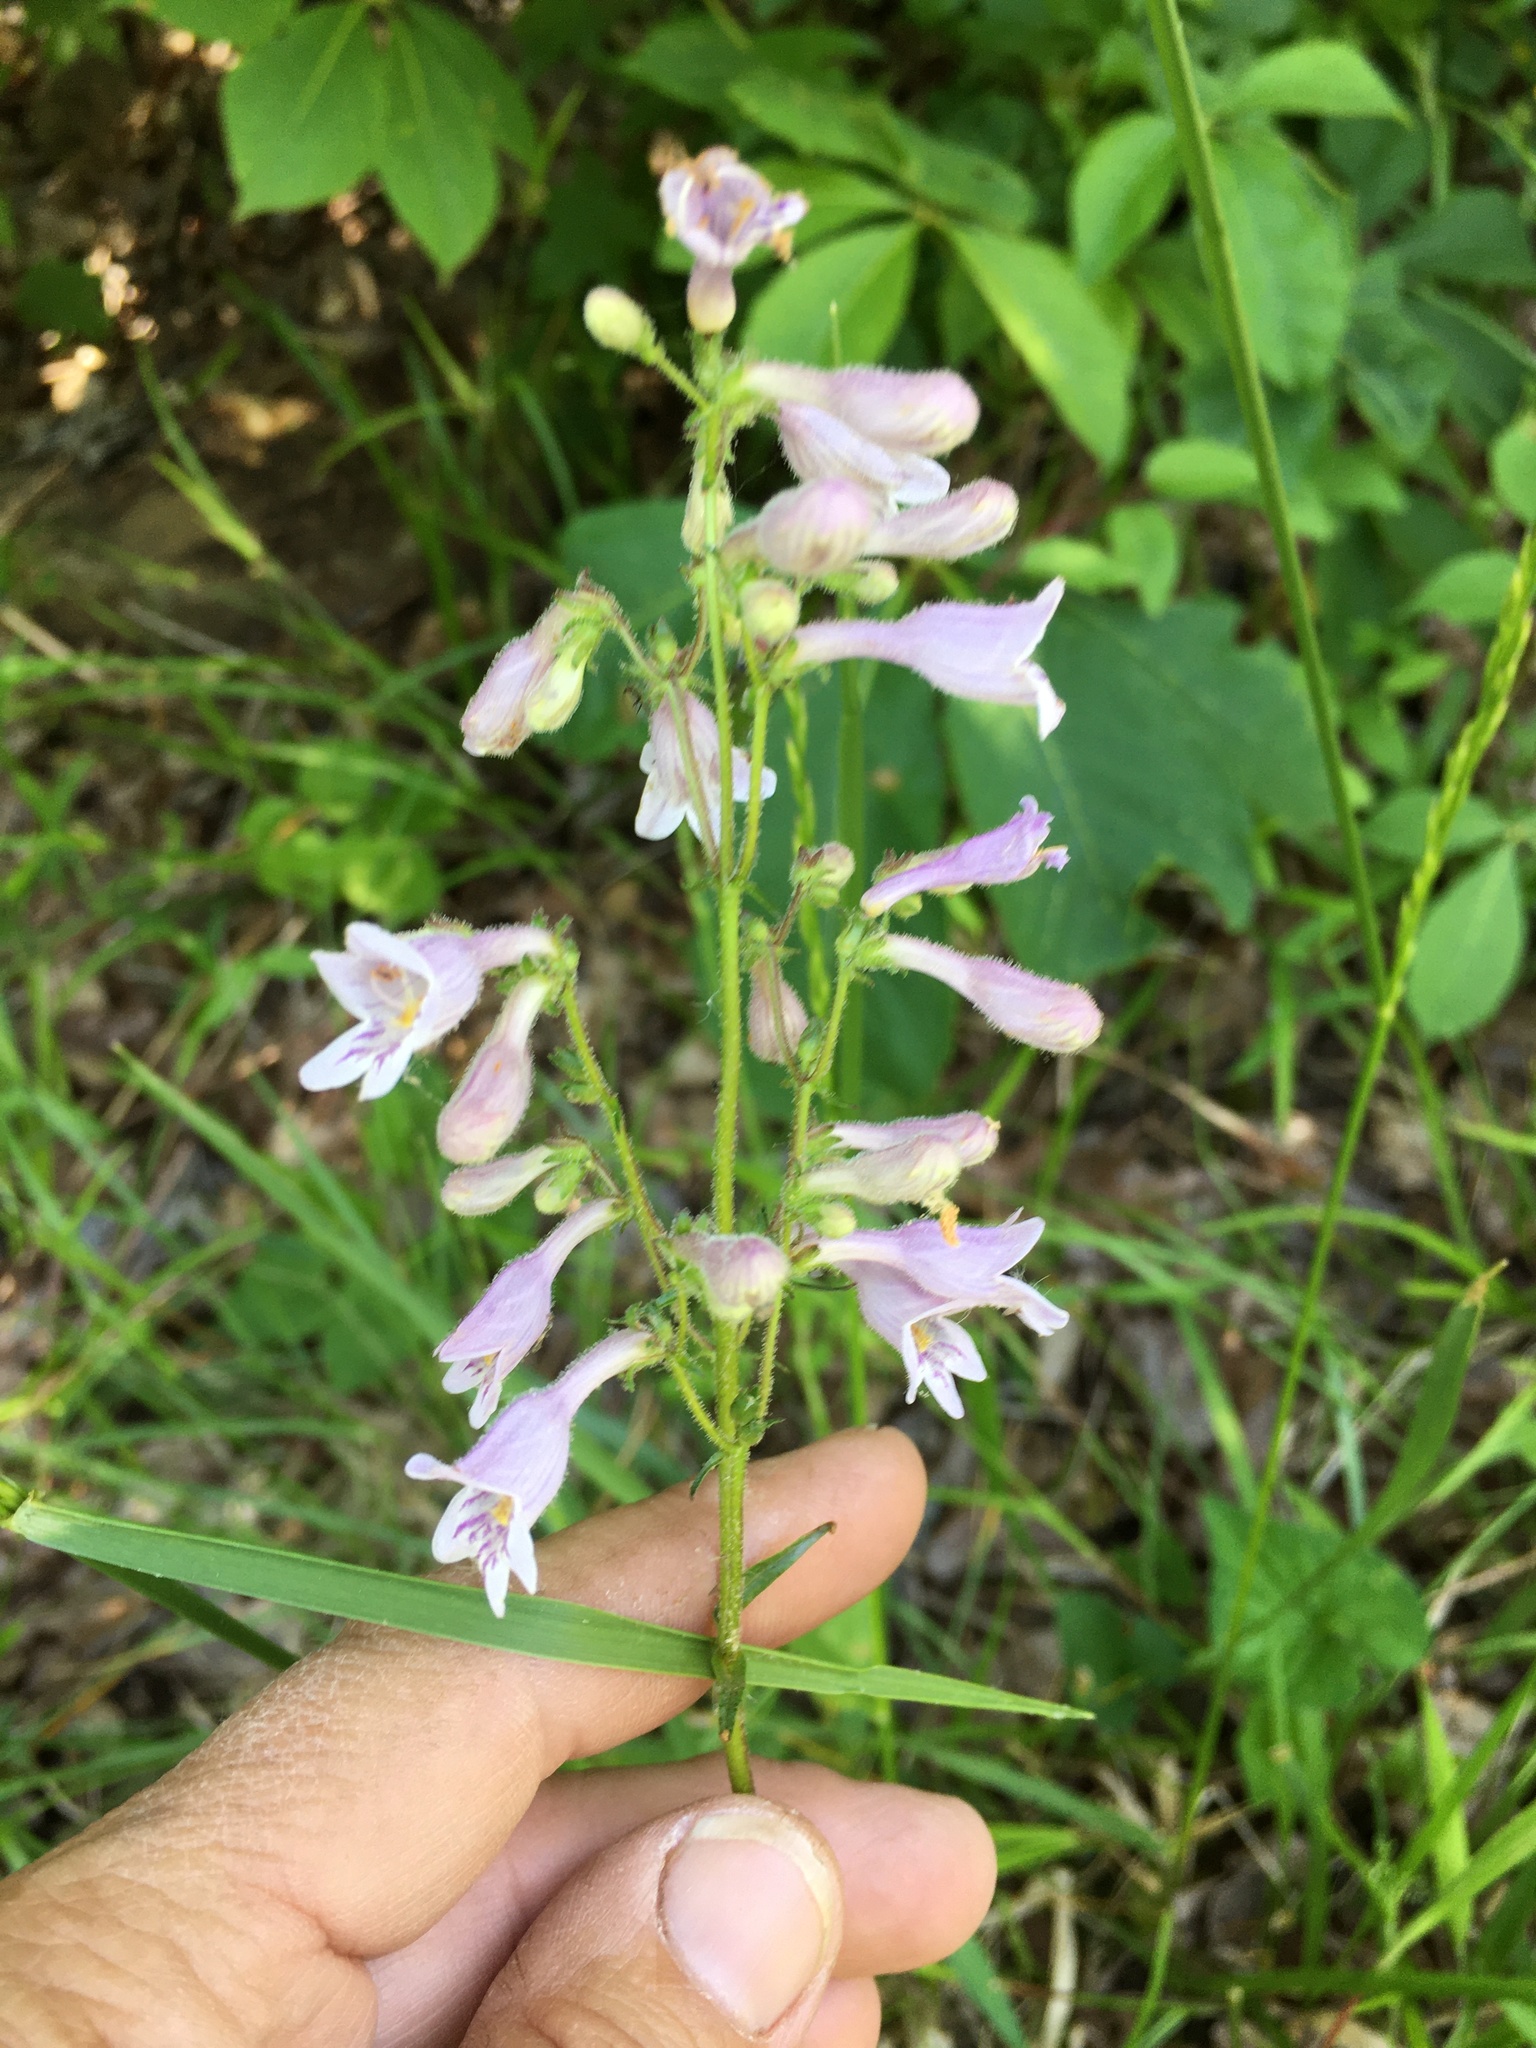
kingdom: Plantae
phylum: Tracheophyta
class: Magnoliopsida
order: Lamiales
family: Plantaginaceae
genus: Penstemon
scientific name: Penstemon laevigatus
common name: Eastern beardtongue
